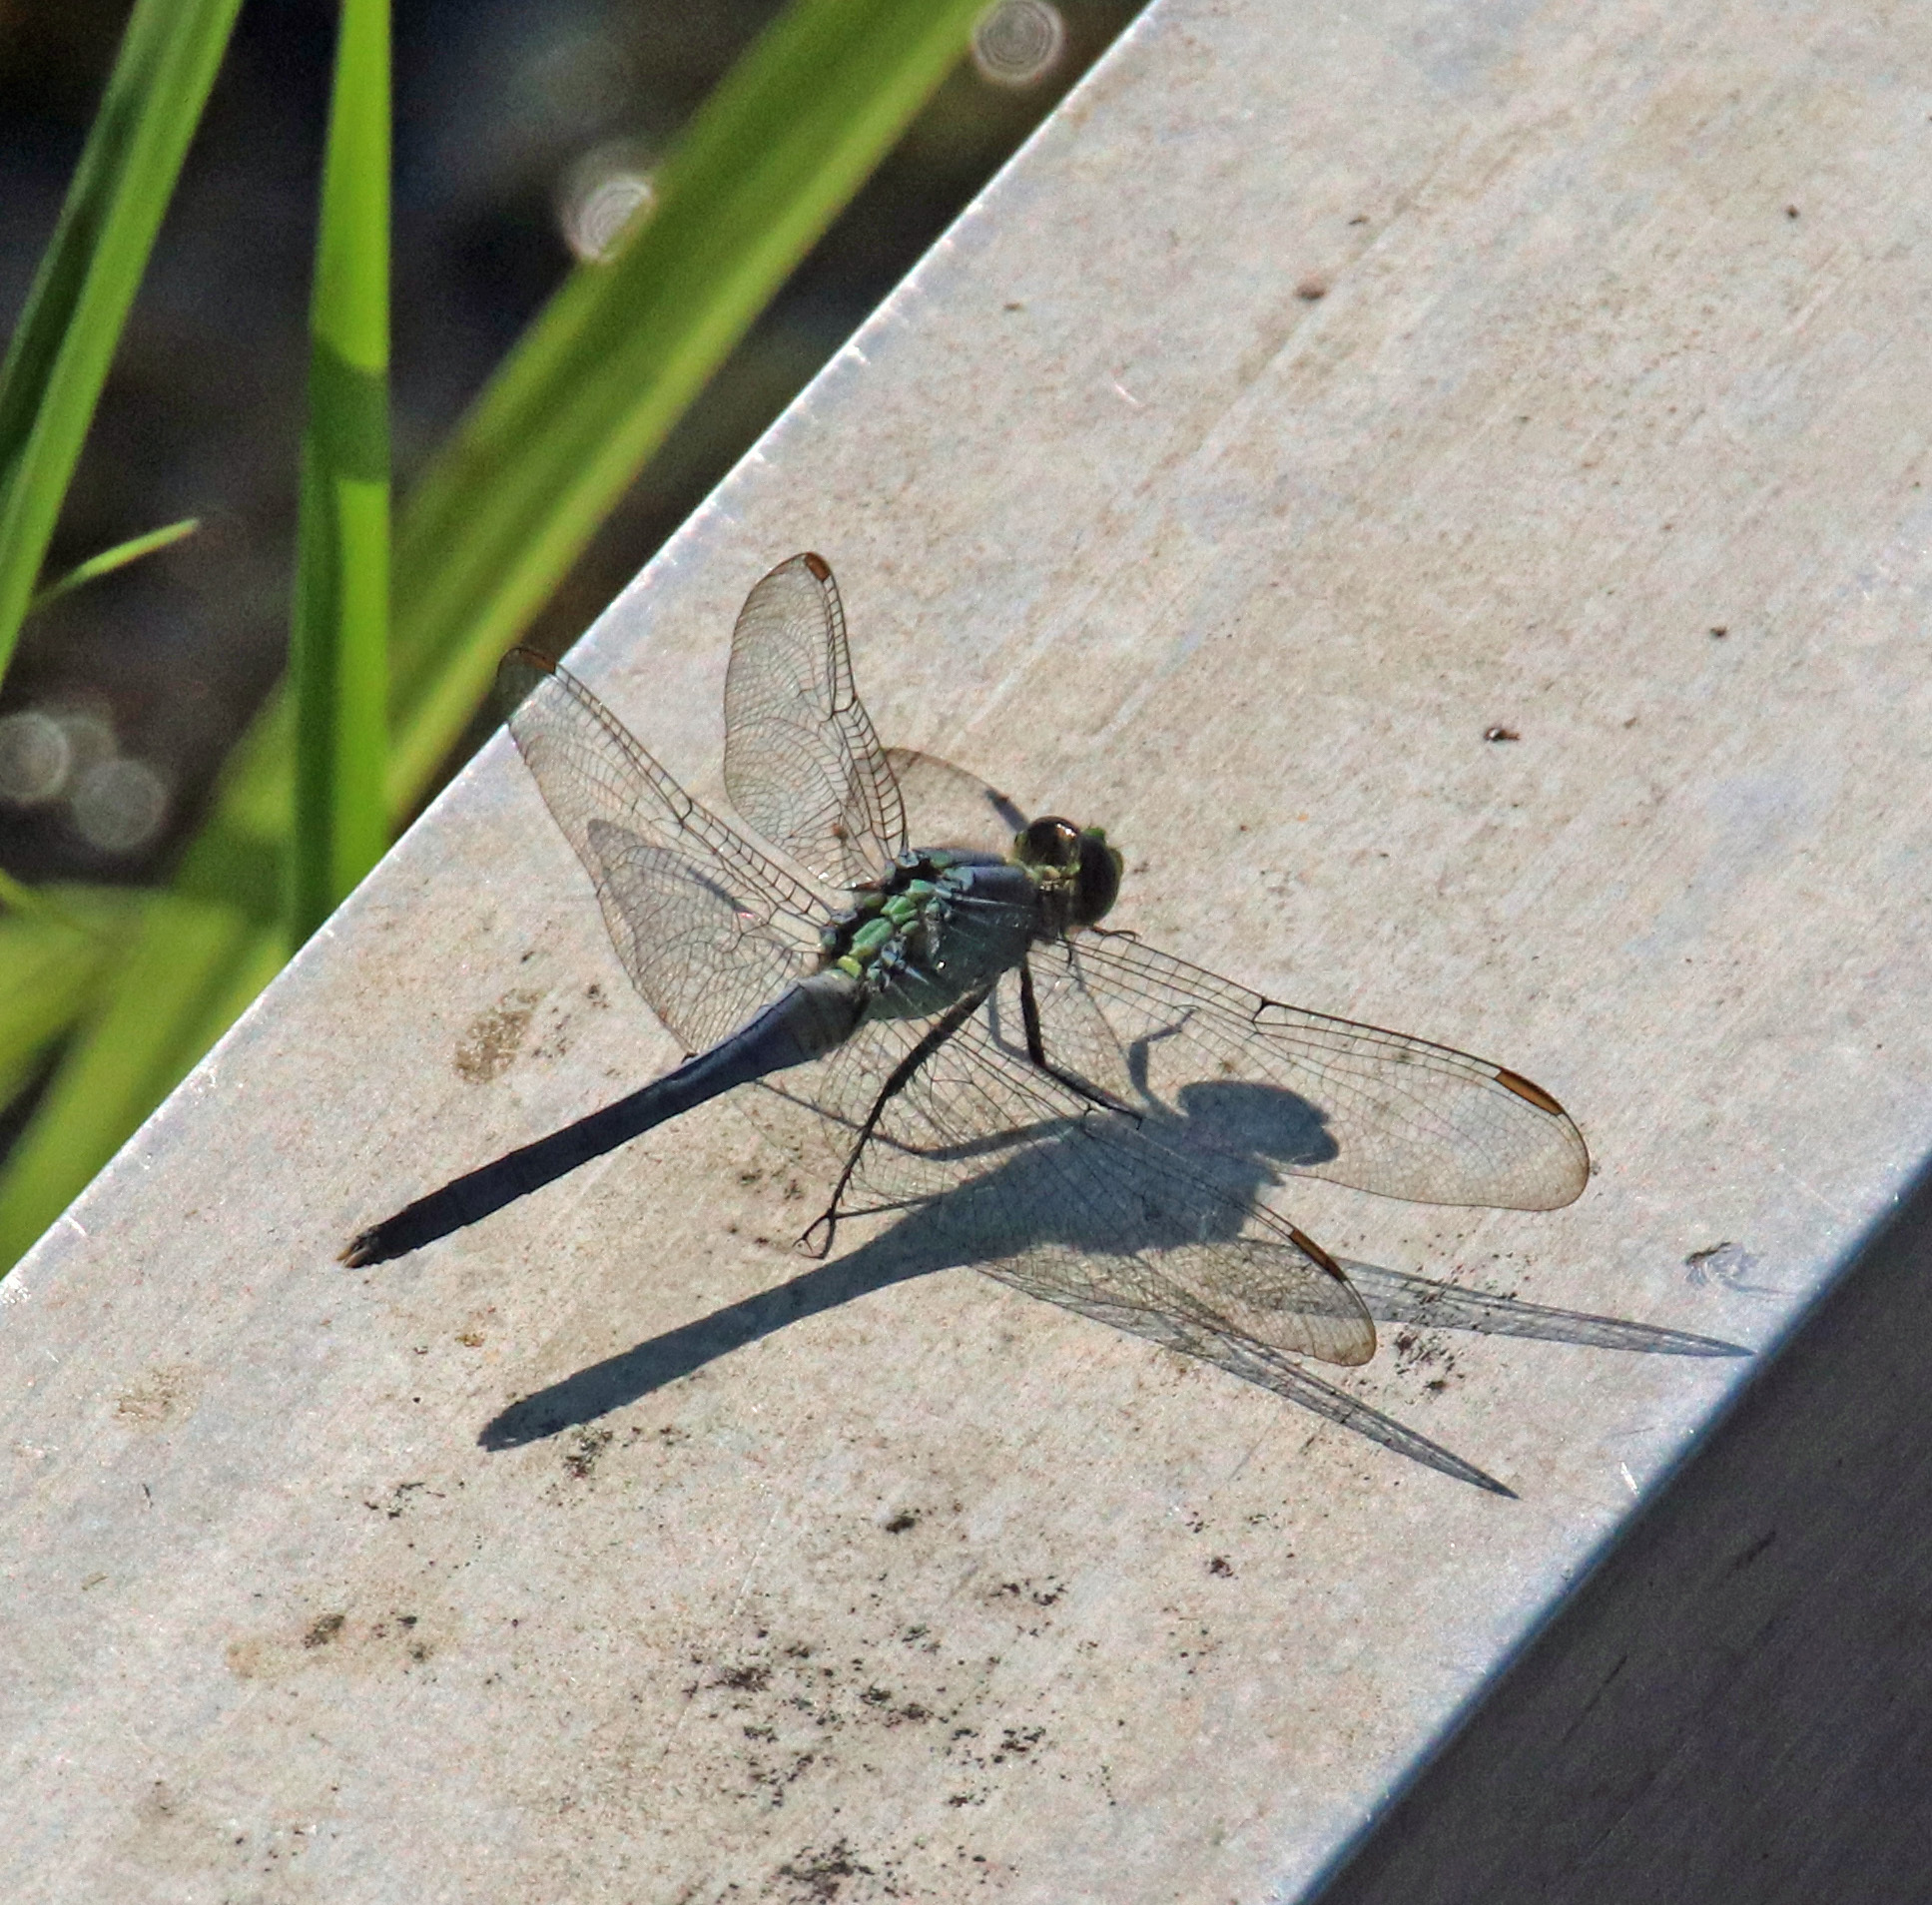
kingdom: Animalia
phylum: Arthropoda
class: Insecta
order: Odonata
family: Libellulidae
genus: Erythemis
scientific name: Erythemis simplicicollis
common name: Eastern pondhawk
